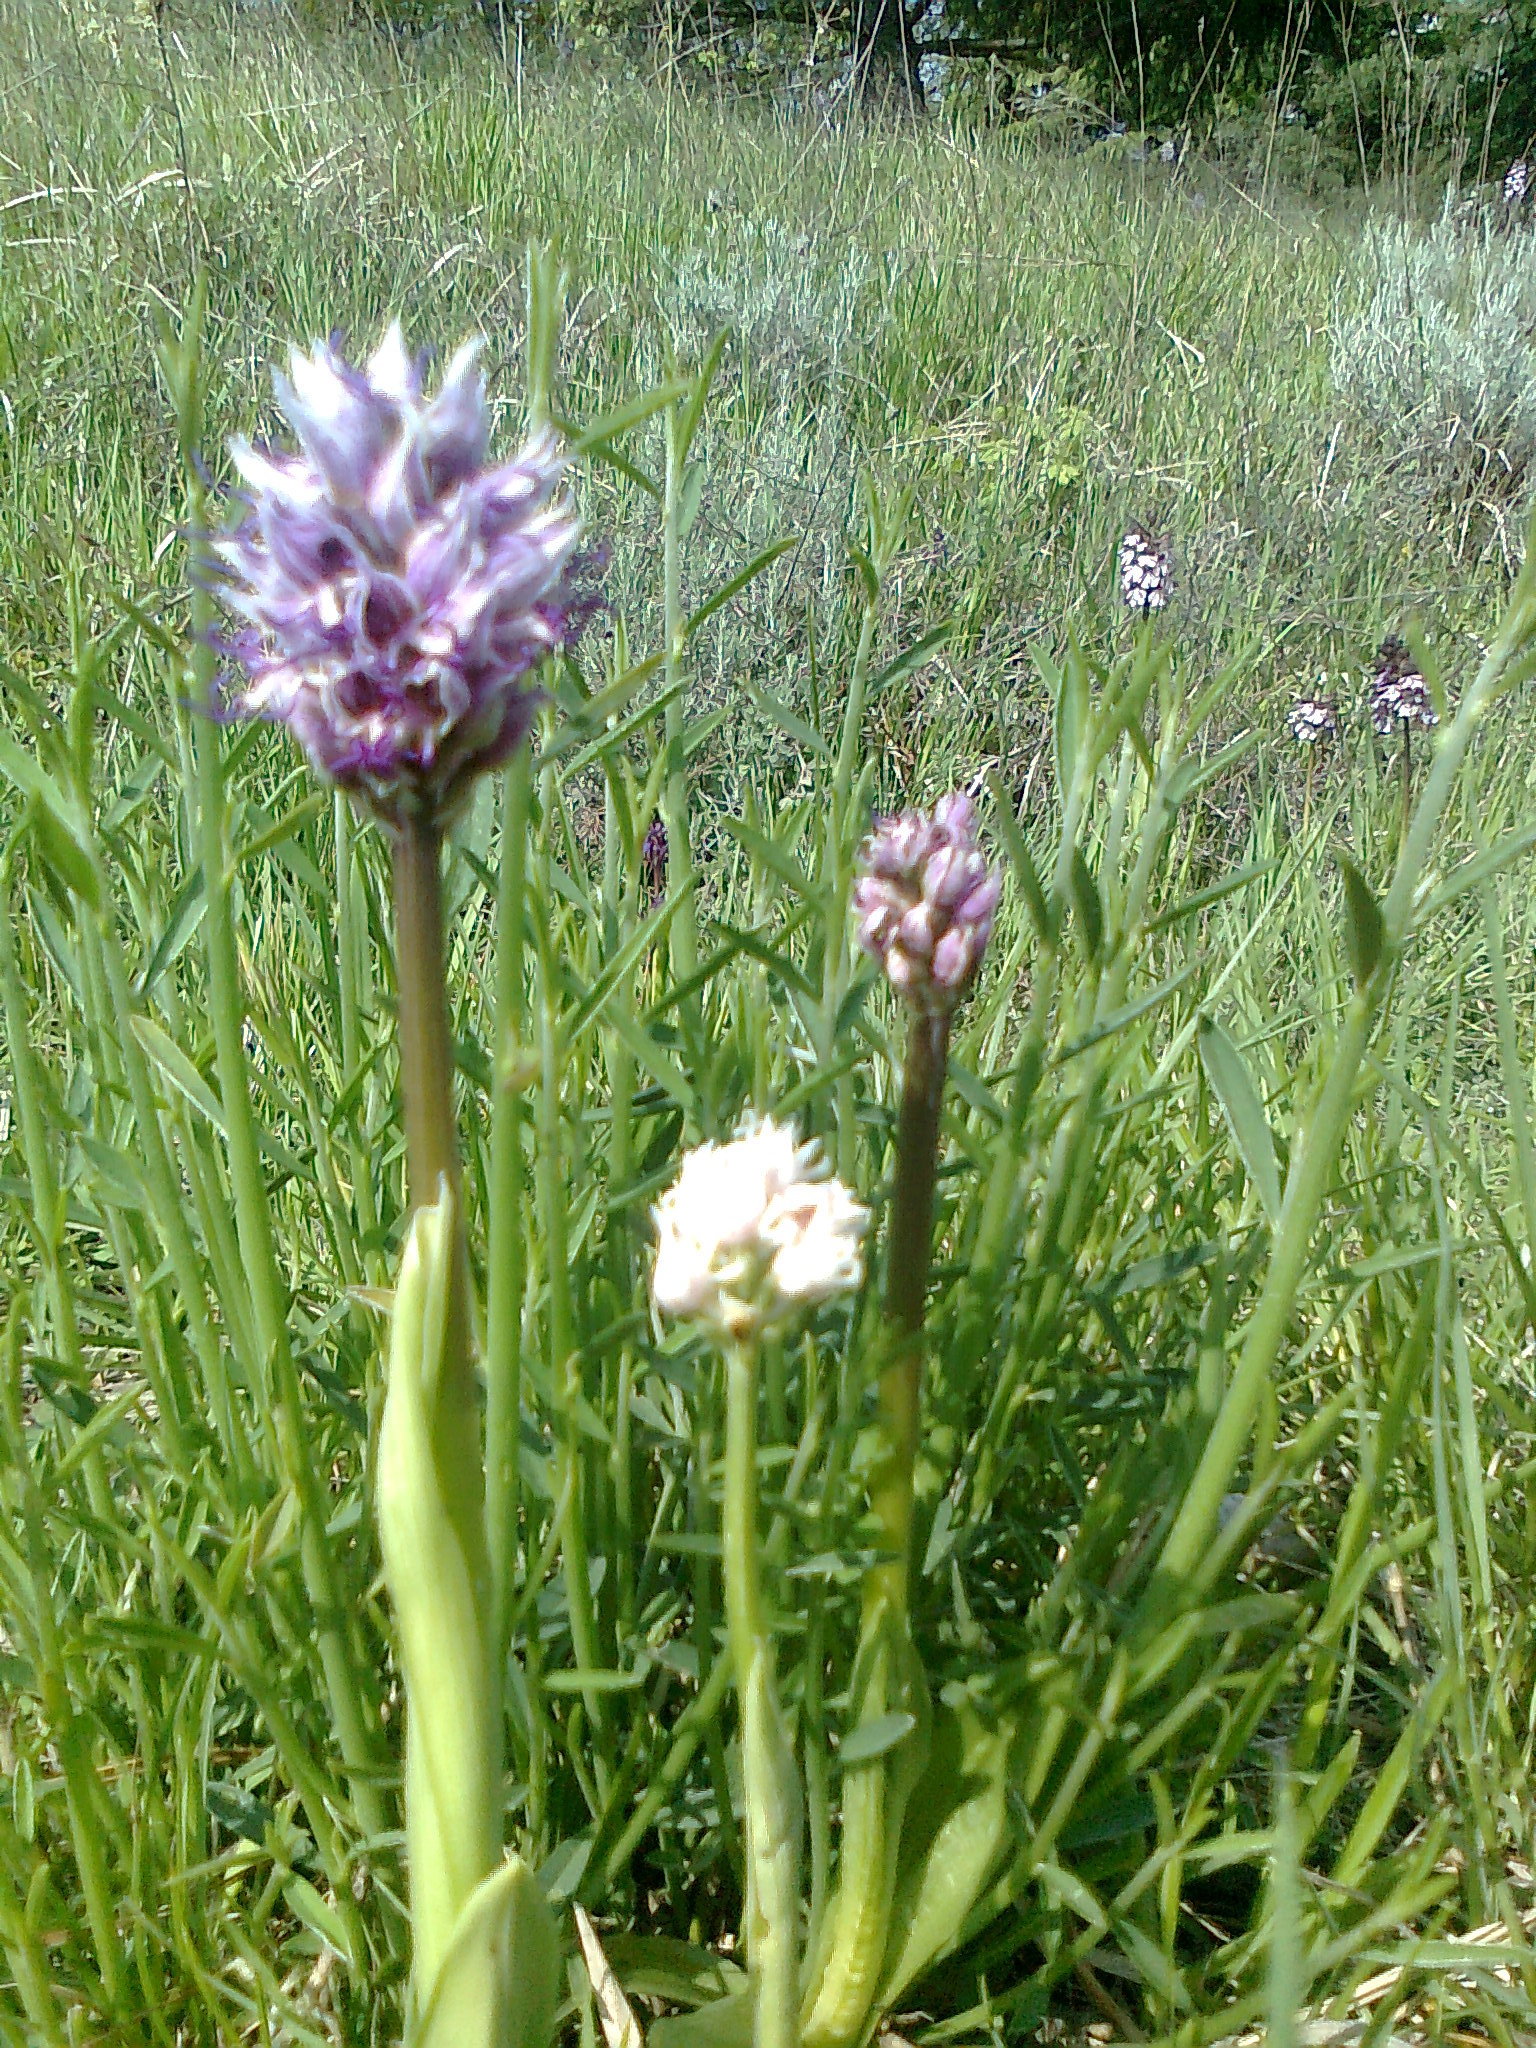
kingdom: Plantae
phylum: Tracheophyta
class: Liliopsida
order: Asparagales
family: Orchidaceae
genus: Orchis
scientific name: Orchis simia
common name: Monkey orchid
